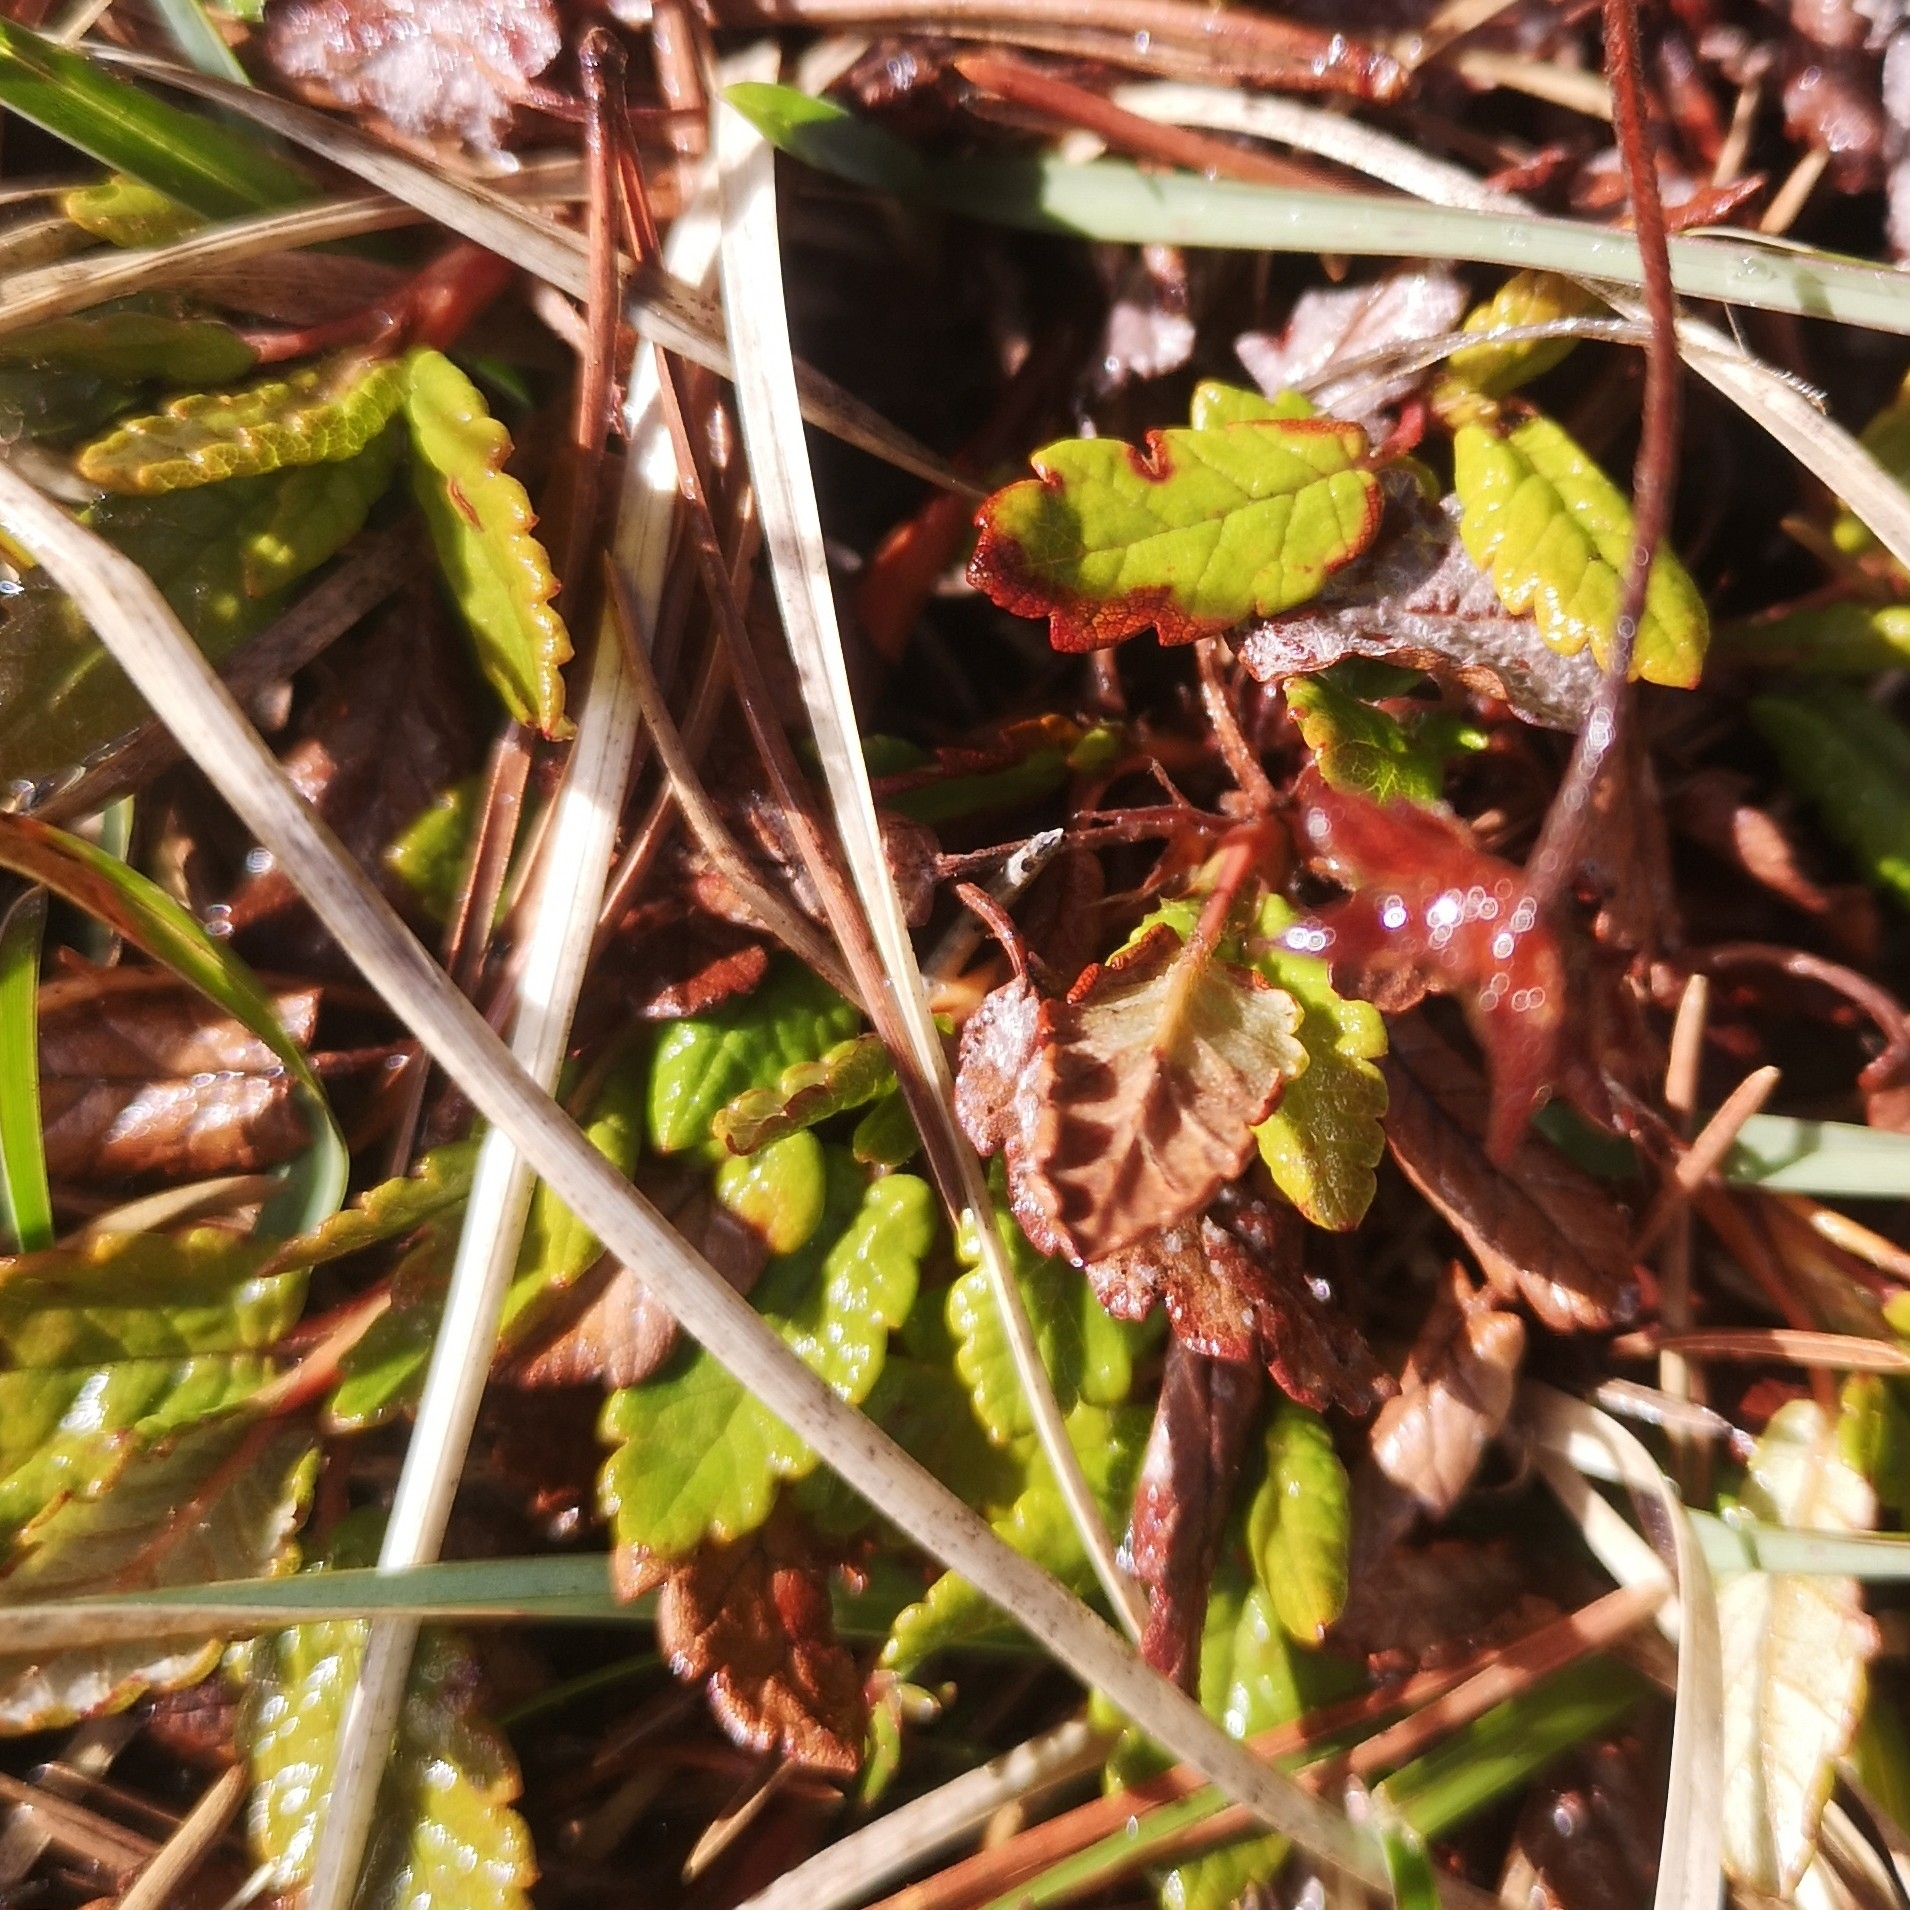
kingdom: Plantae
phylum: Tracheophyta
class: Magnoliopsida
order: Rosales
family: Rosaceae
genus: Dryas
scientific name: Dryas octopetala
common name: Eight-petal mountain-avens
